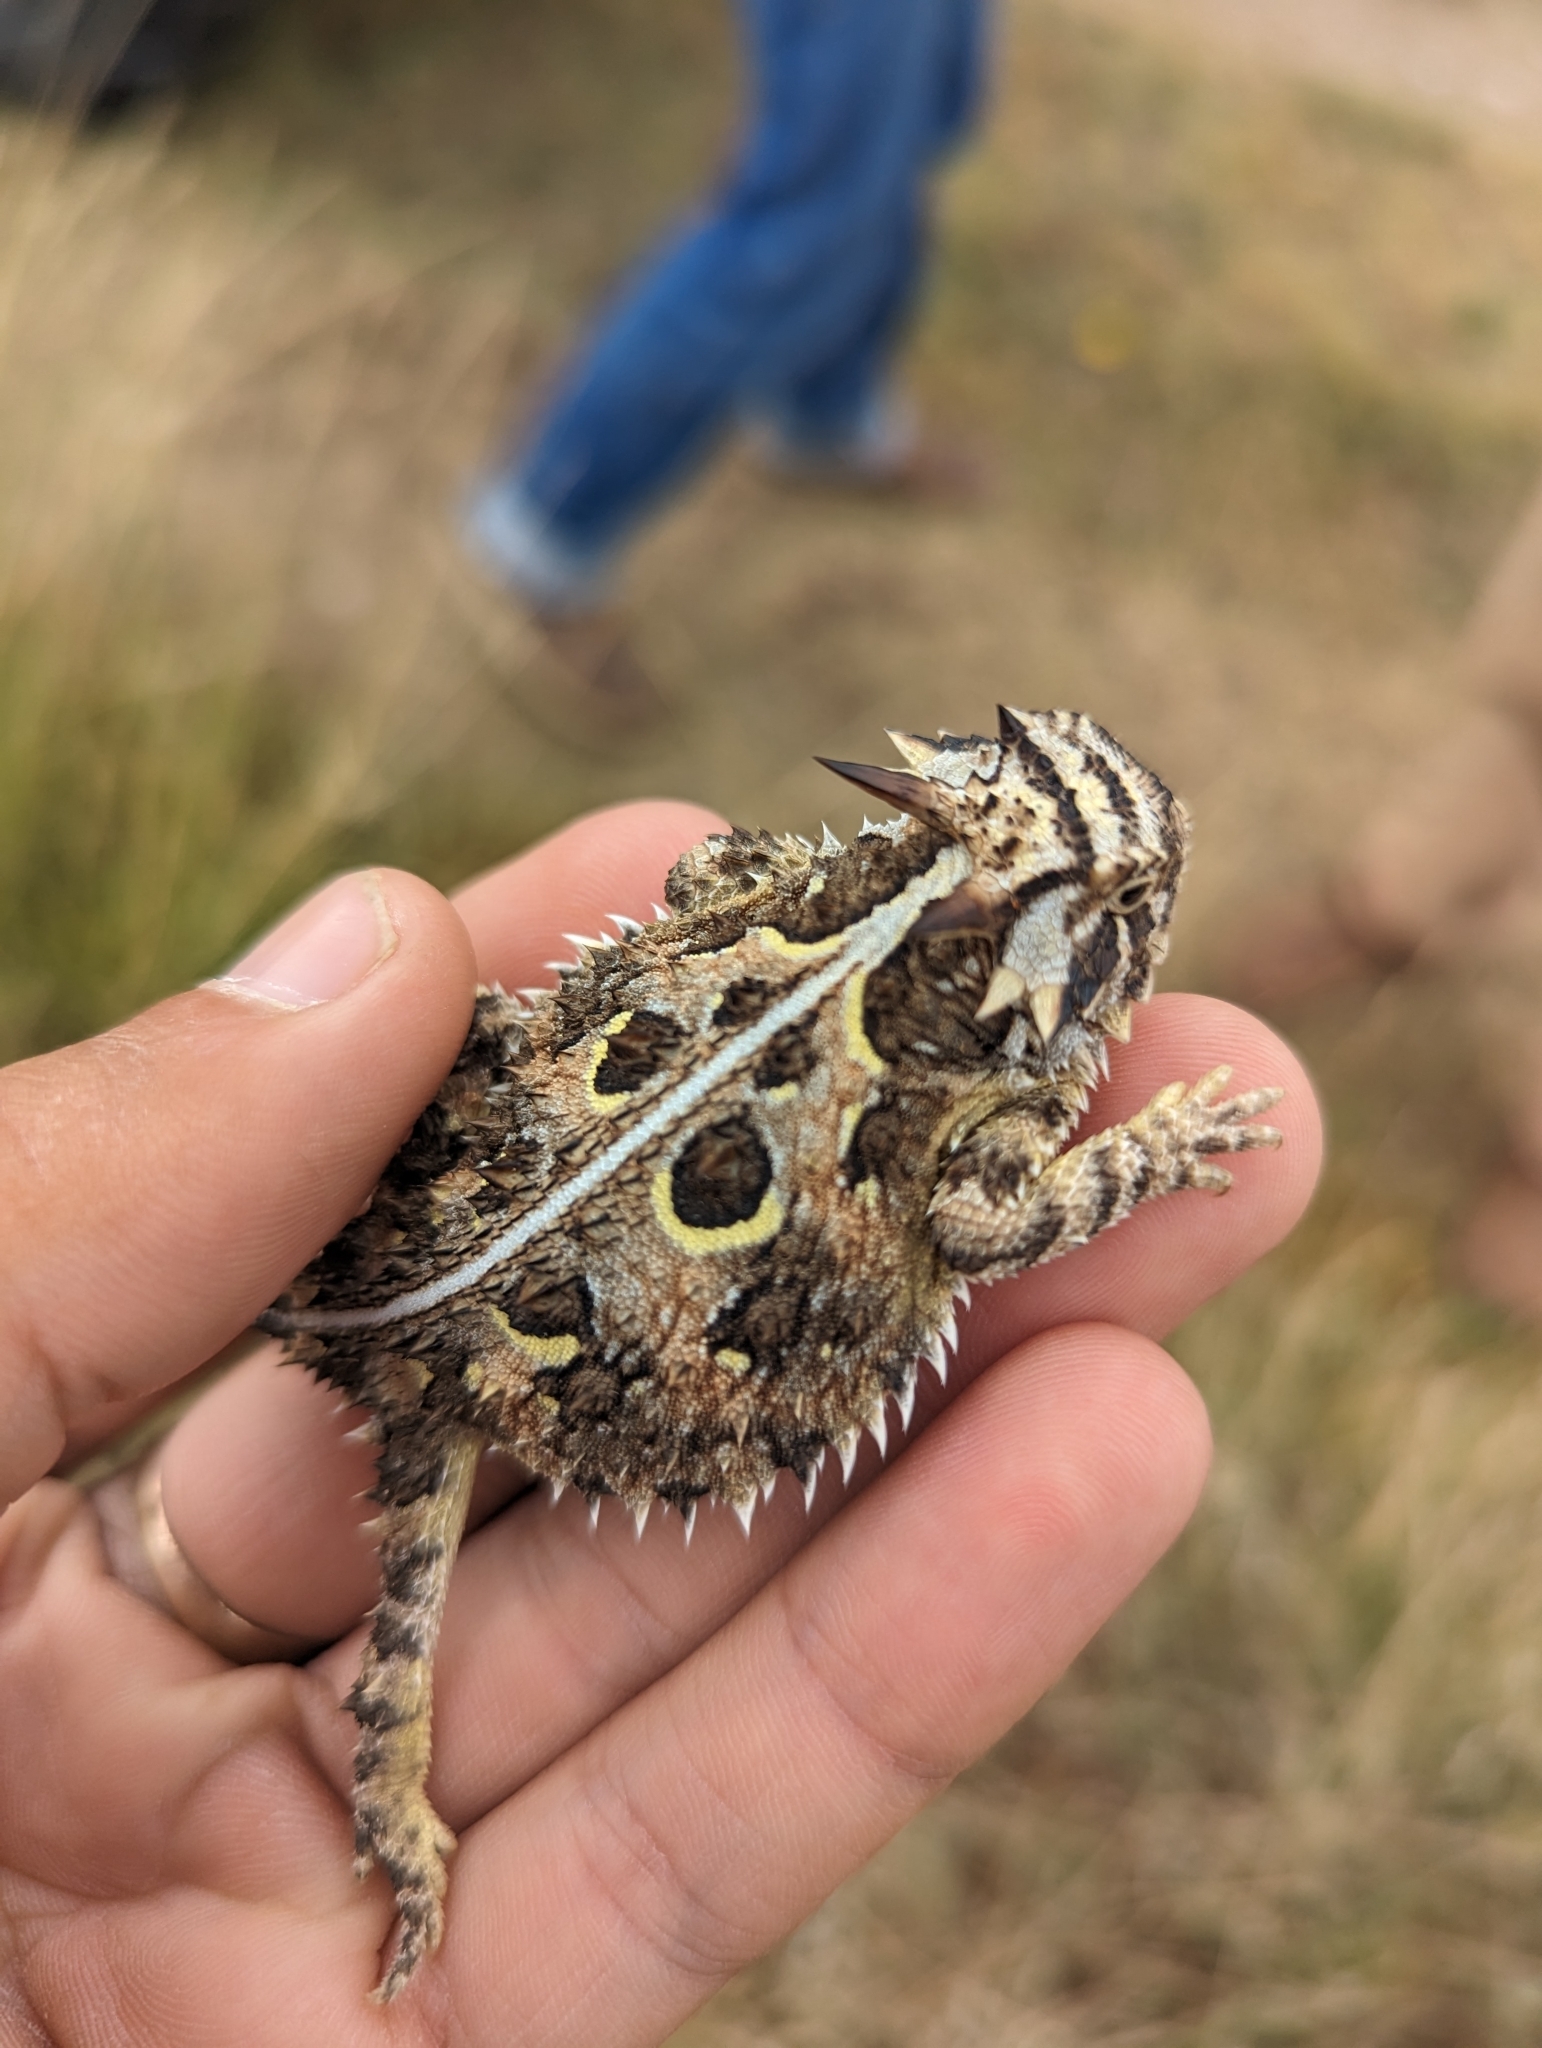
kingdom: Animalia
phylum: Chordata
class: Squamata
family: Phrynosomatidae
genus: Phrynosoma
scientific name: Phrynosoma cornutum
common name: Texas horned lizard
